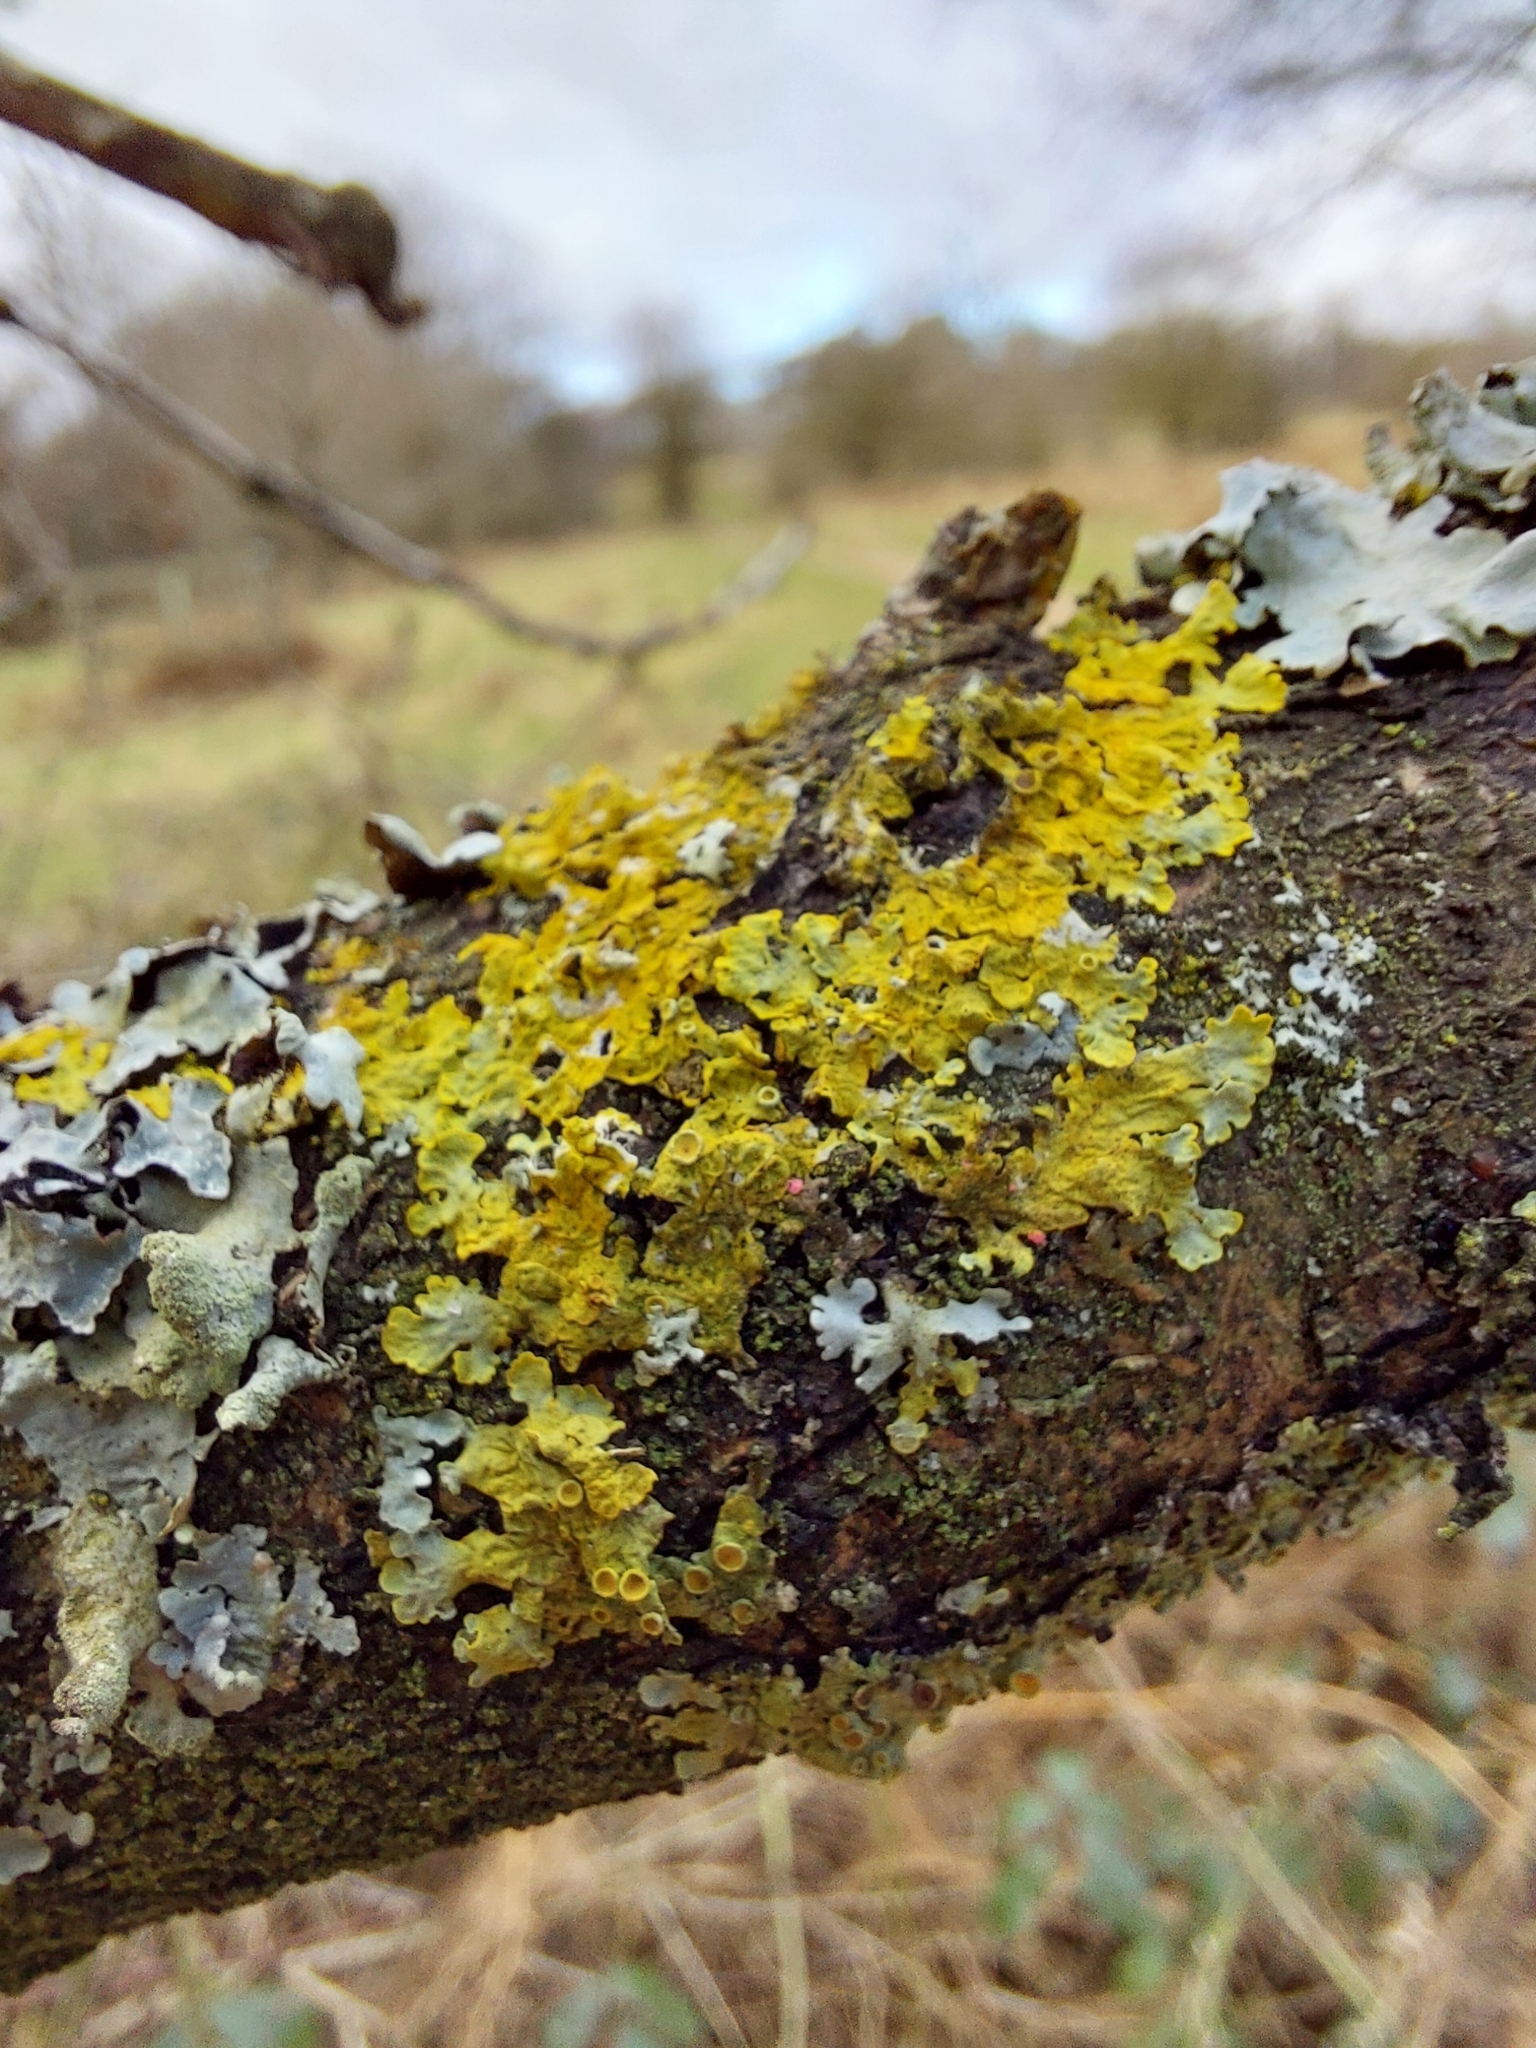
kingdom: Fungi
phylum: Ascomycota
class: Lecanoromycetes
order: Teloschistales
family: Teloschistaceae
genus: Xanthoria
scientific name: Xanthoria parietina
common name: Common orange lichen
